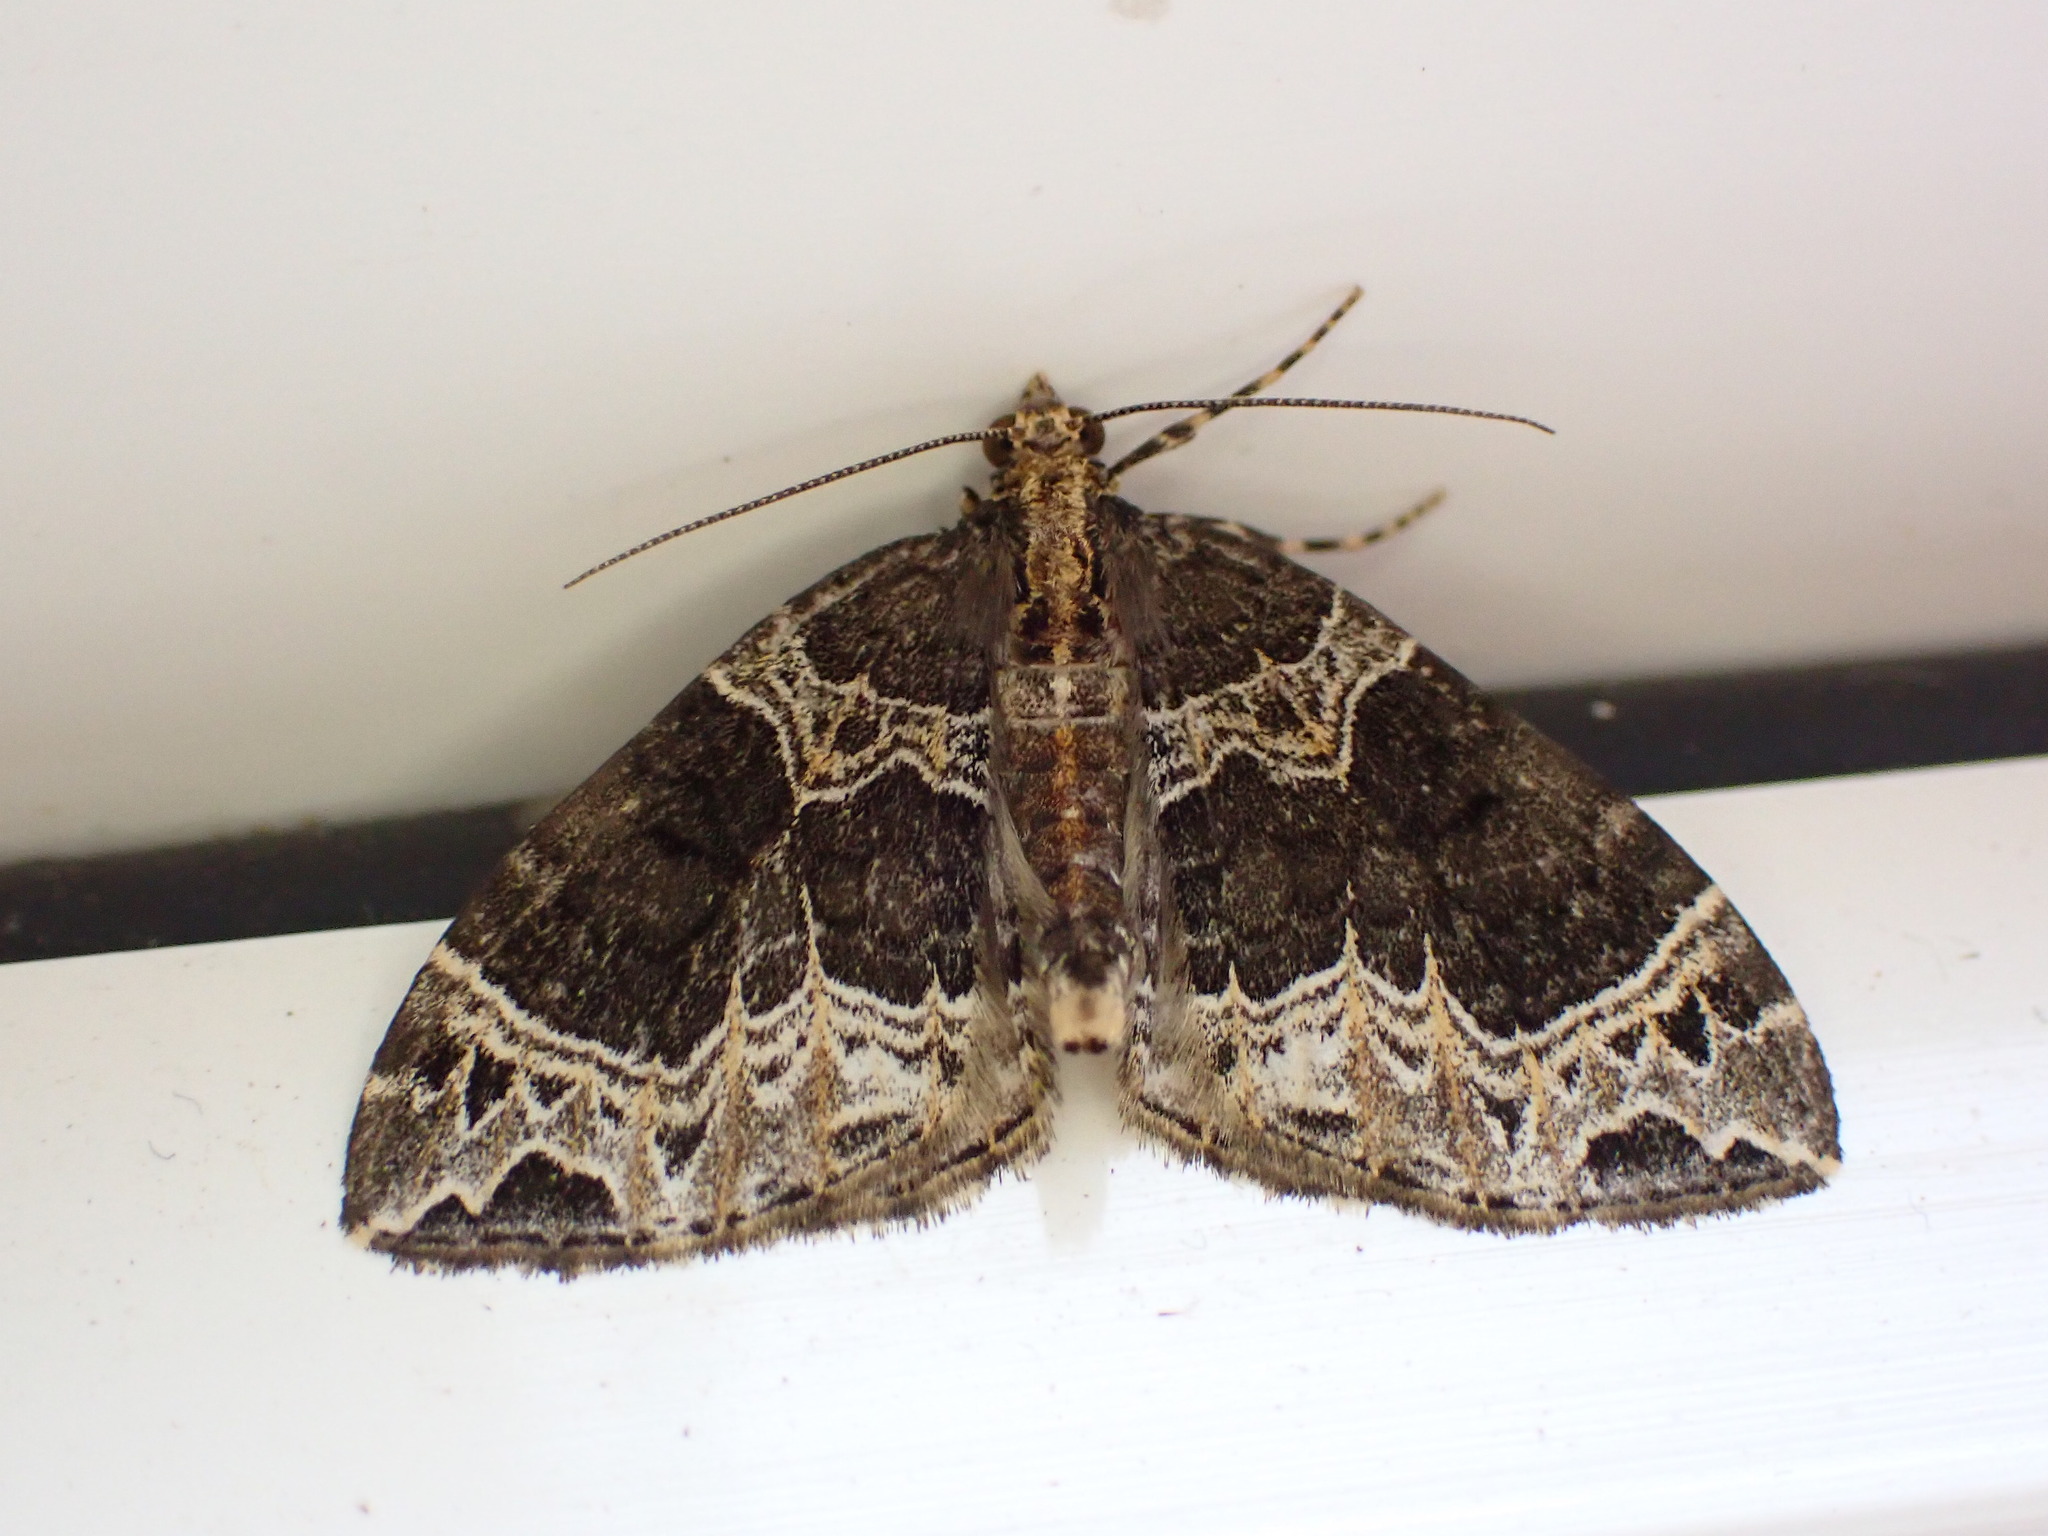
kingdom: Animalia
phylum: Arthropoda
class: Insecta
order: Lepidoptera
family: Geometridae
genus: Ecliptopera
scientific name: Ecliptopera silaceata
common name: Small phoenix
